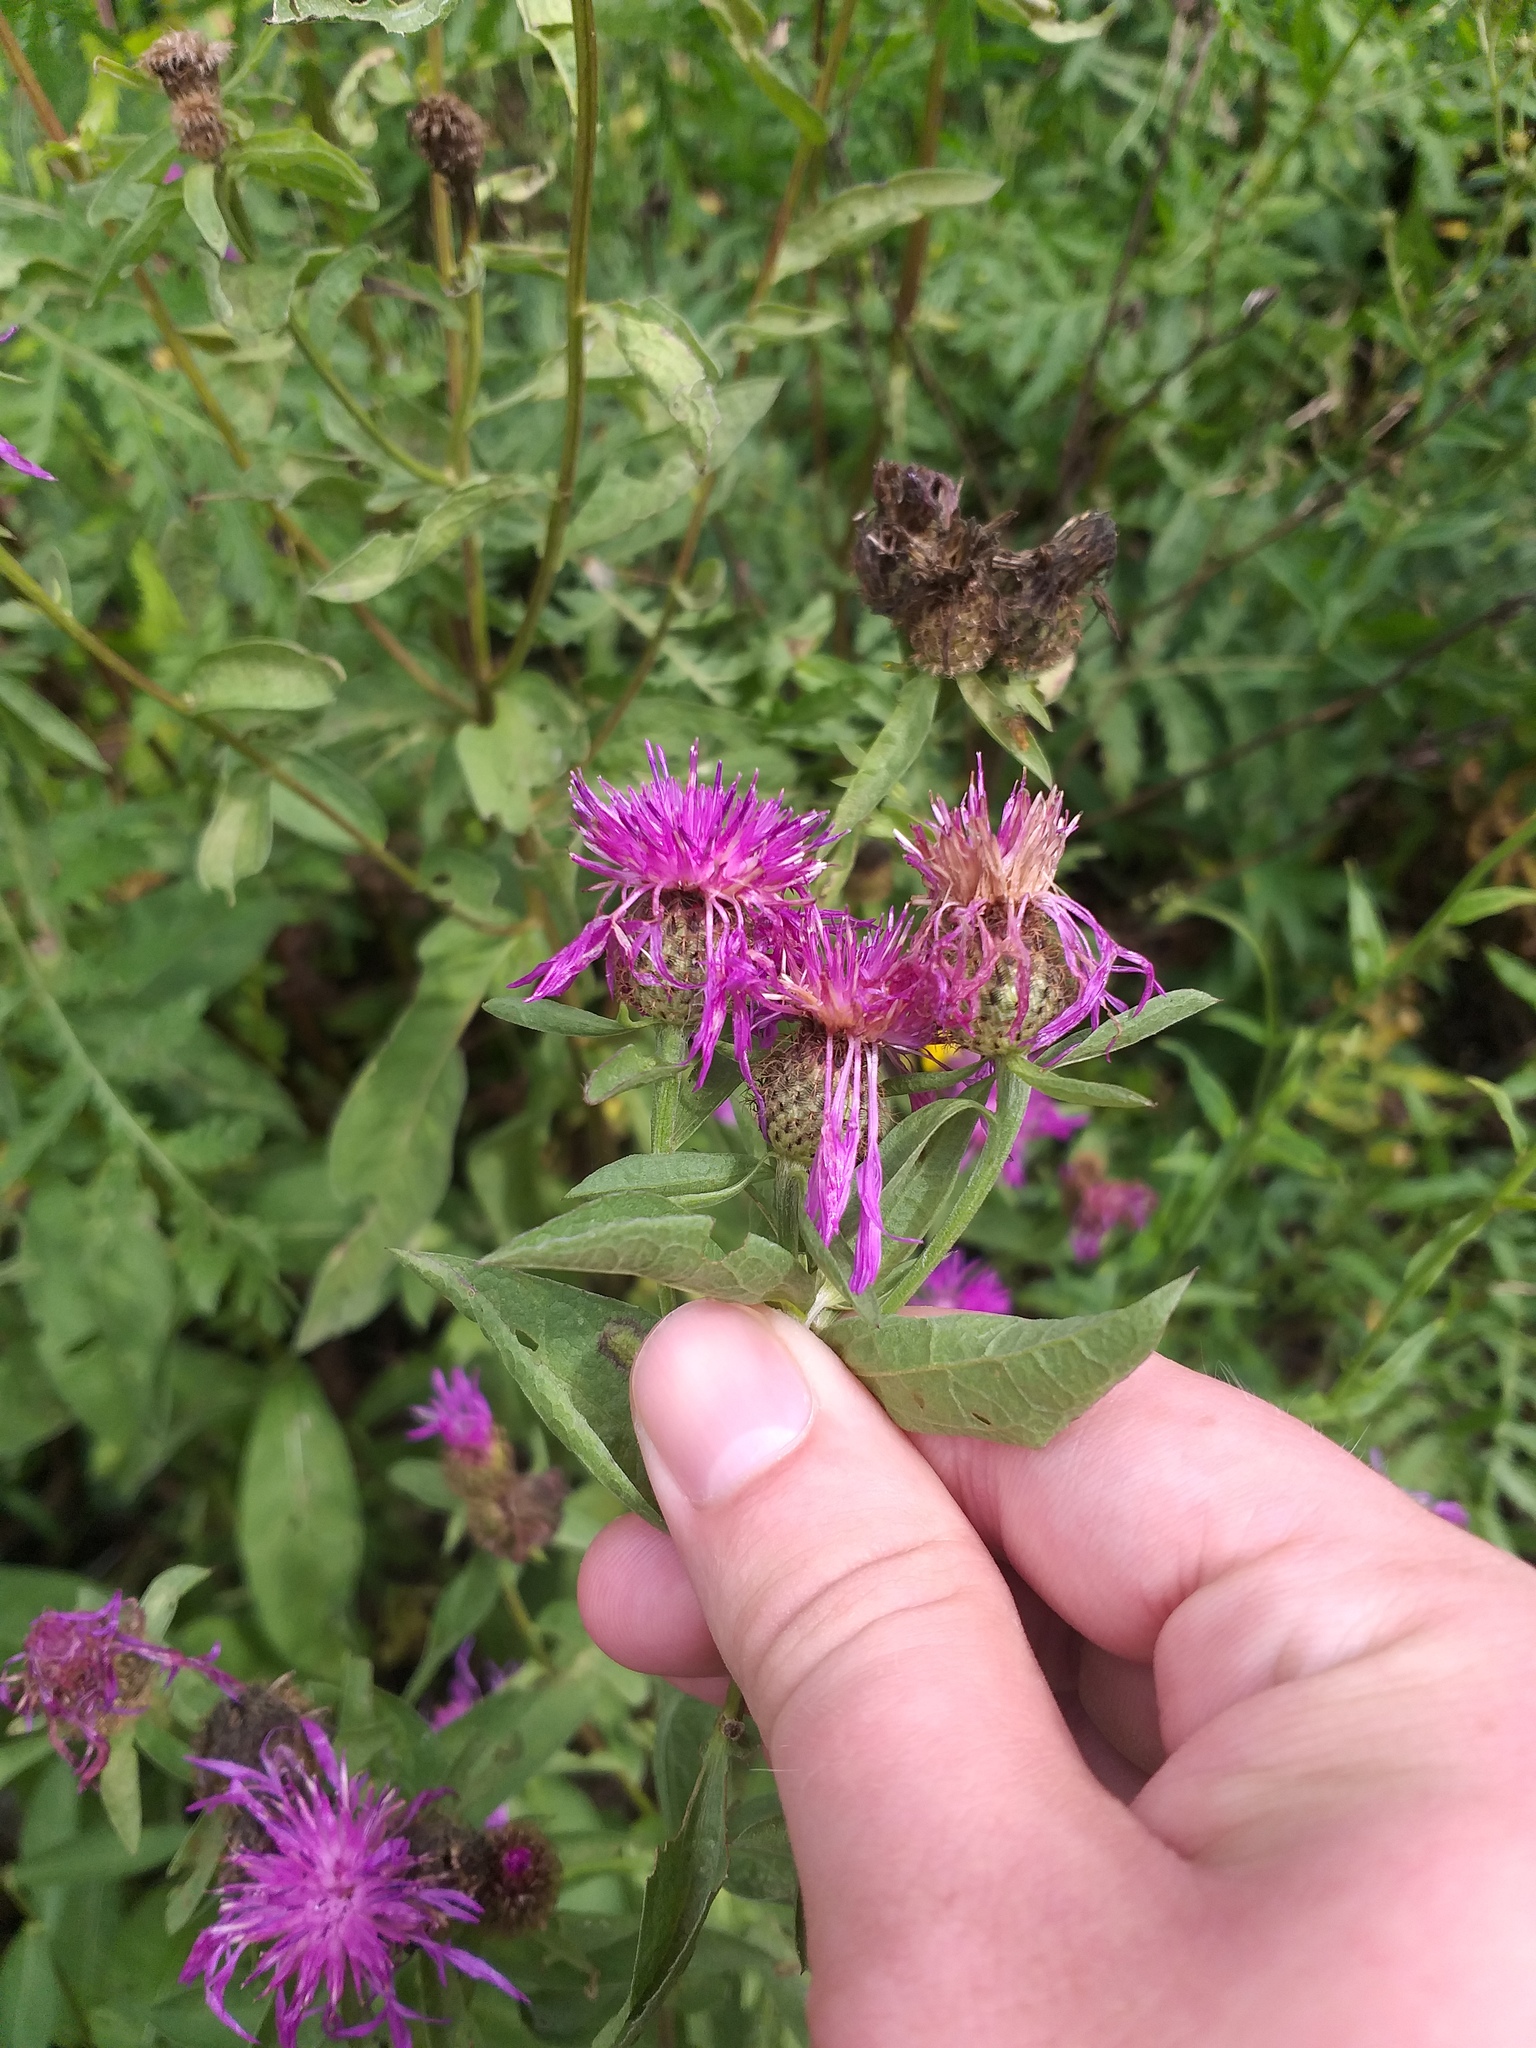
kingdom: Plantae
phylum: Tracheophyta
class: Magnoliopsida
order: Asterales
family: Asteraceae
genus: Centaurea
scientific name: Centaurea phrygia
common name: Wig knapweed
